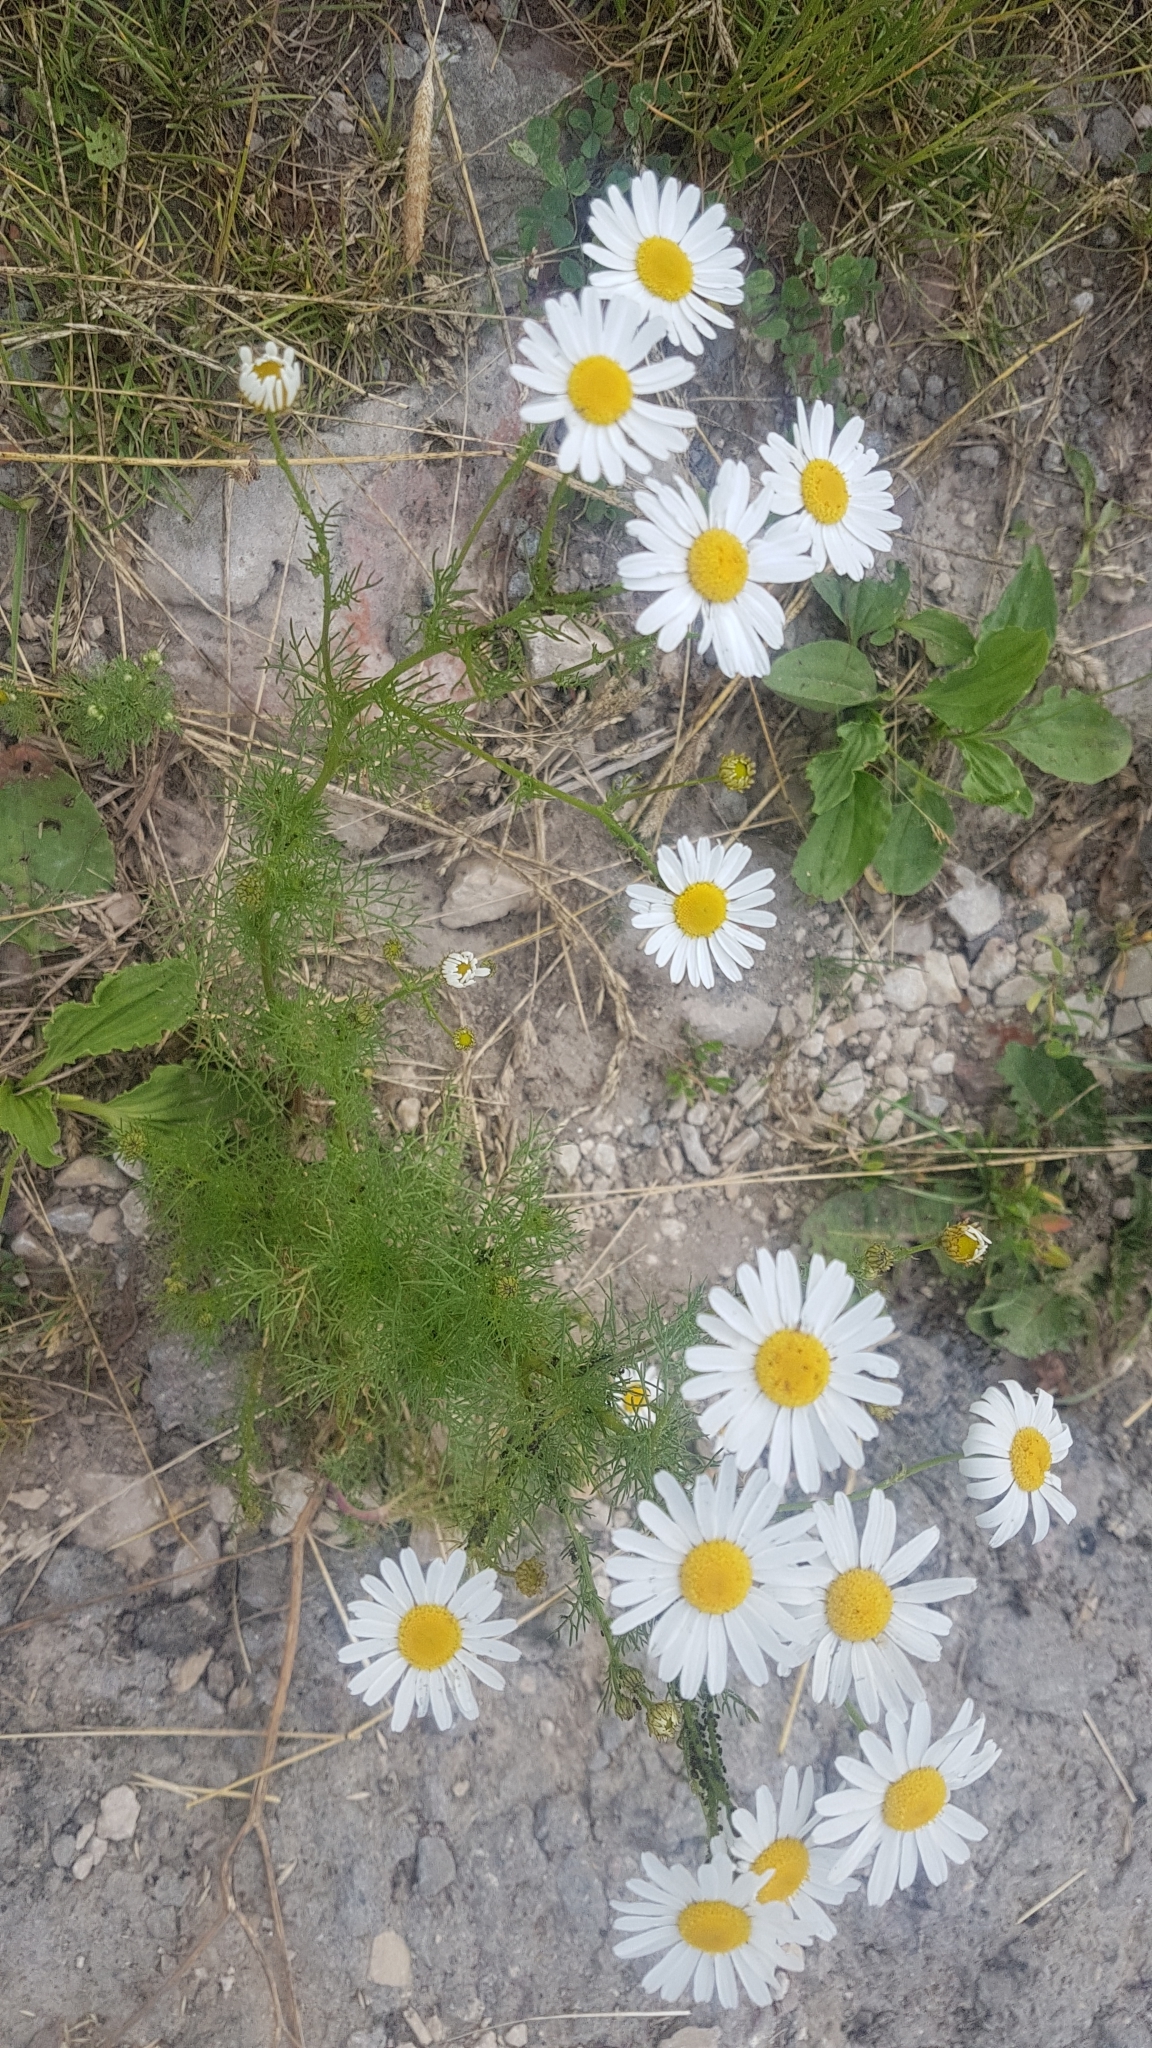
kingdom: Plantae
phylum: Tracheophyta
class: Magnoliopsida
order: Asterales
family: Asteraceae
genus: Tripleurospermum
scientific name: Tripleurospermum inodorum
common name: Scentless mayweed
